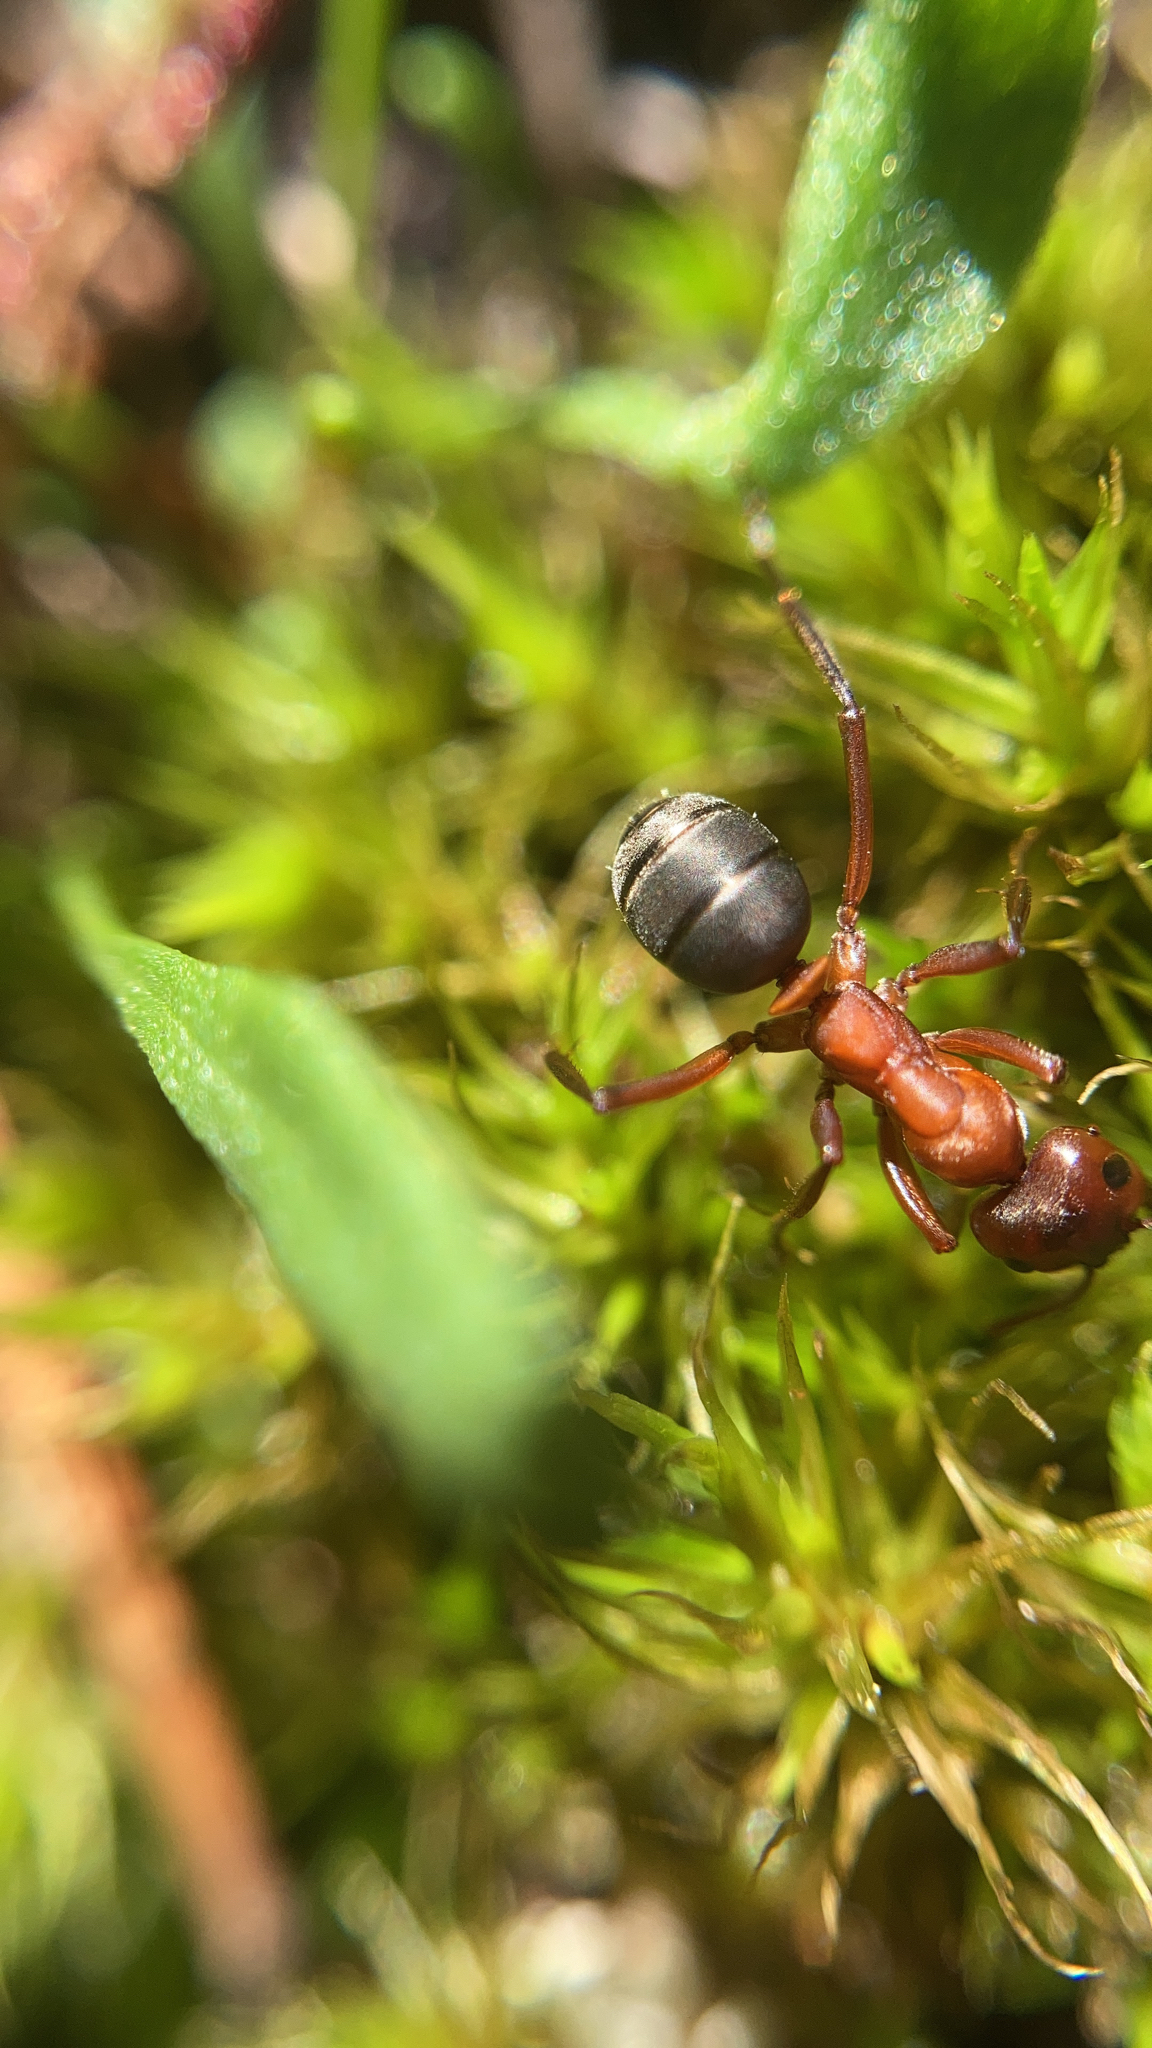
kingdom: Animalia
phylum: Arthropoda
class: Insecta
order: Hymenoptera
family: Formicidae
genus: Formica
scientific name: Formica sanguinea
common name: Blood-red ant
